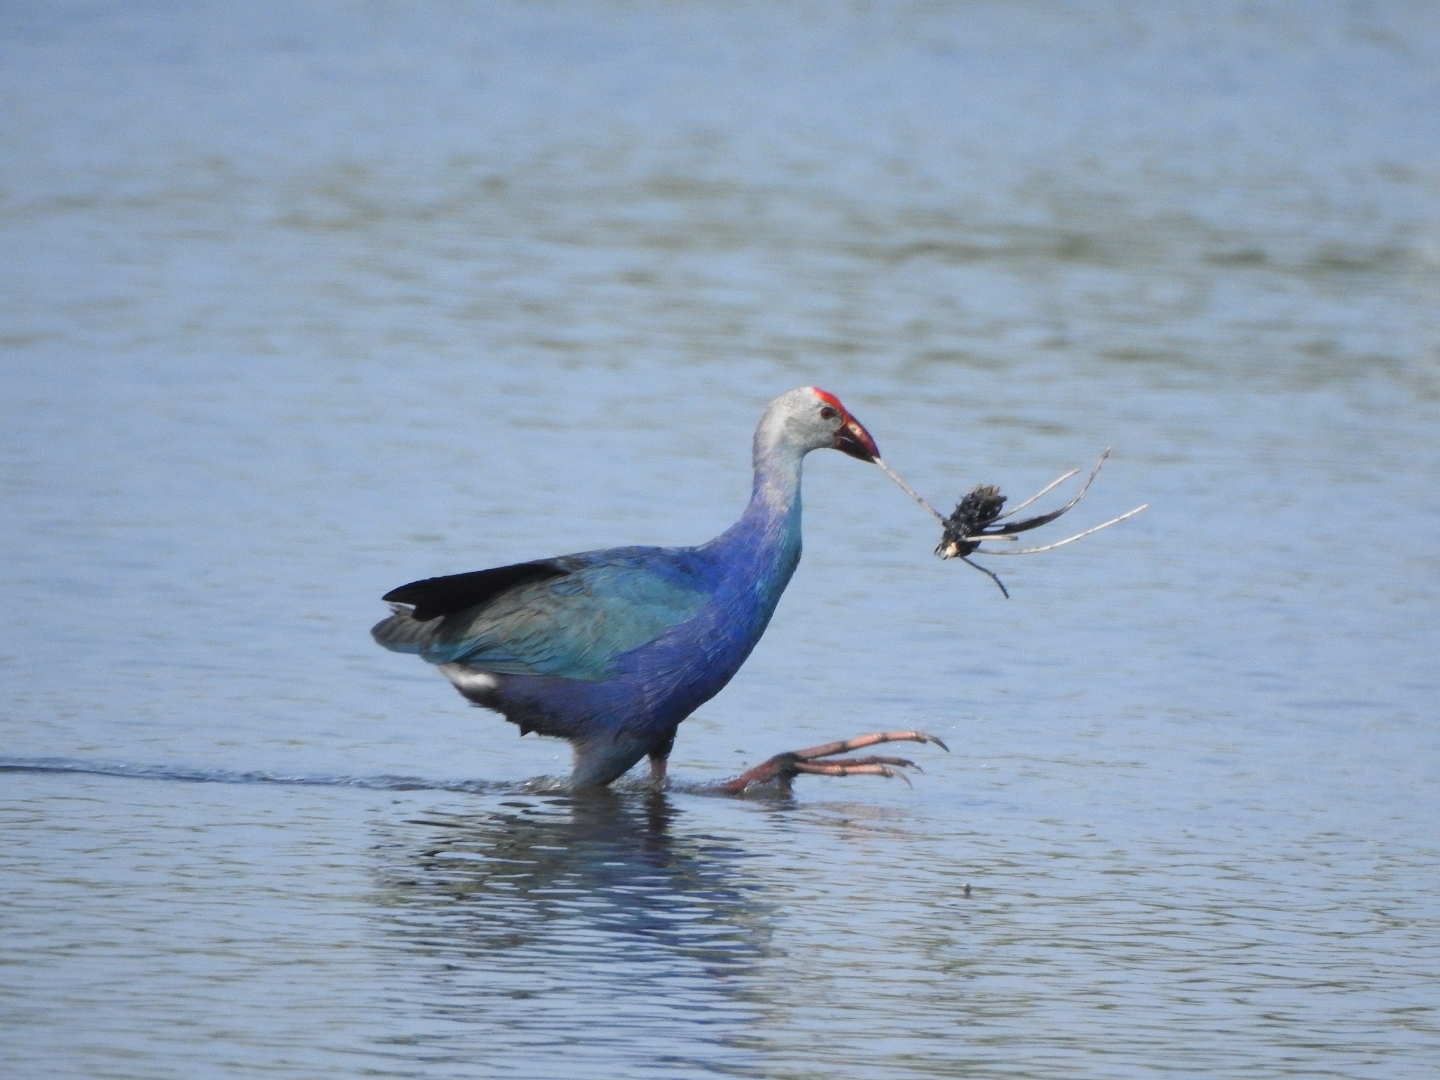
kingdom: Animalia
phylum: Chordata
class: Aves
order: Gruiformes
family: Rallidae
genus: Porphyrio
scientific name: Porphyrio porphyrio
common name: Purple swamphen
